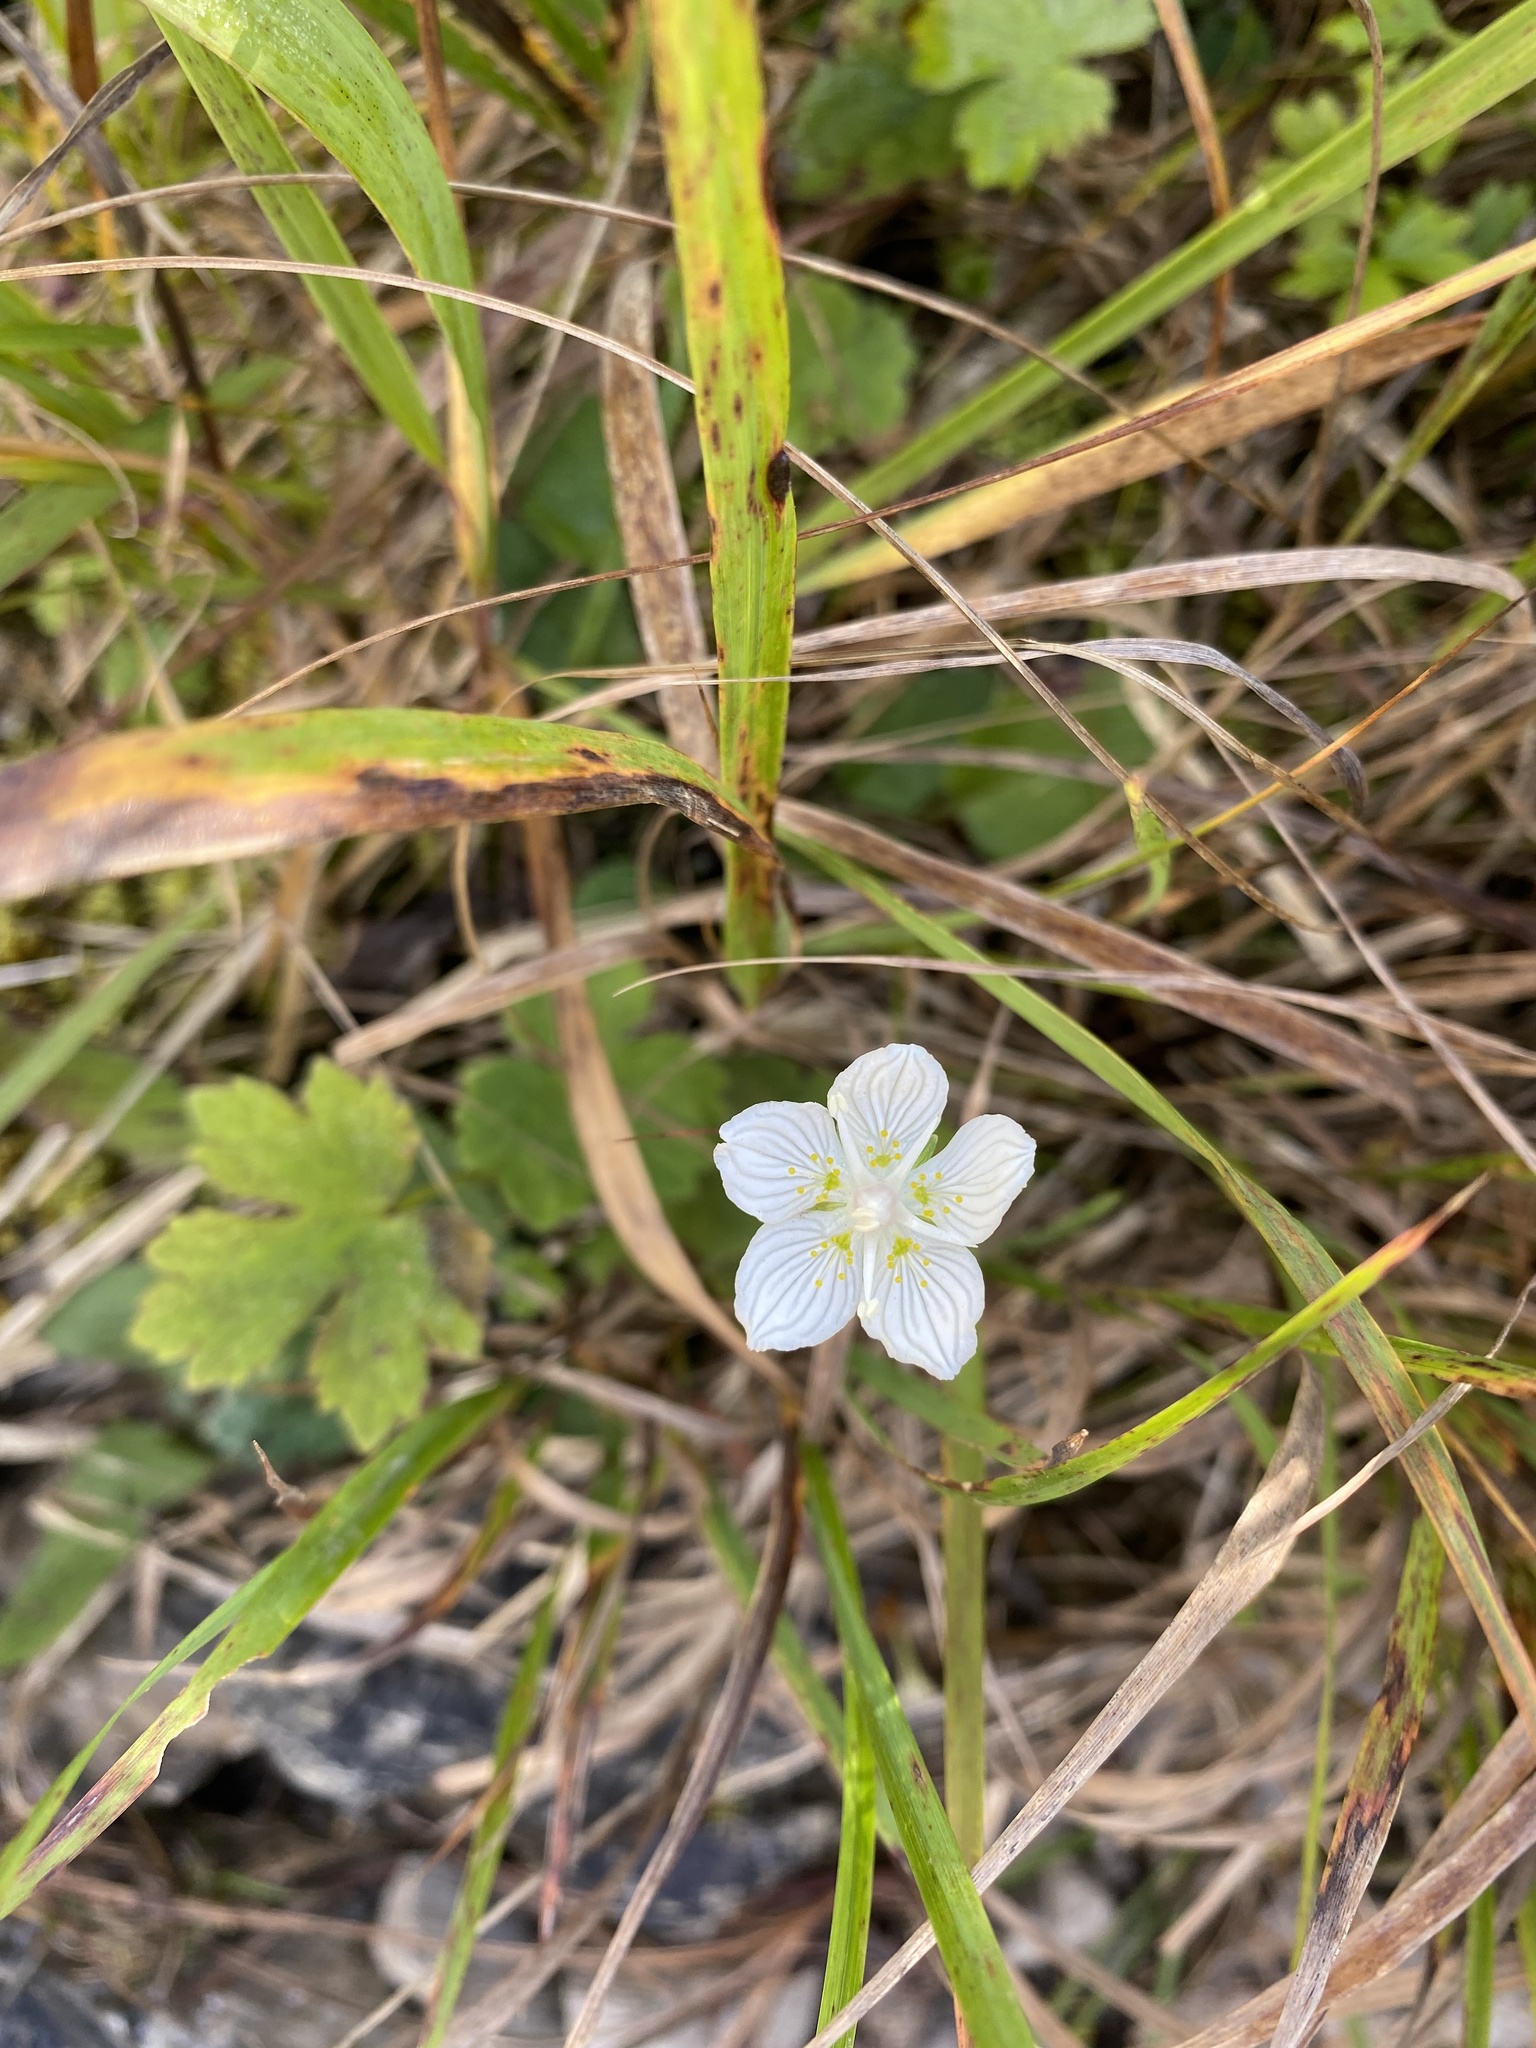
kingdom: Plantae
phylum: Tracheophyta
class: Magnoliopsida
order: Celastrales
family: Parnassiaceae
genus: Parnassia
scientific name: Parnassia palustris
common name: Grass-of-parnassus
